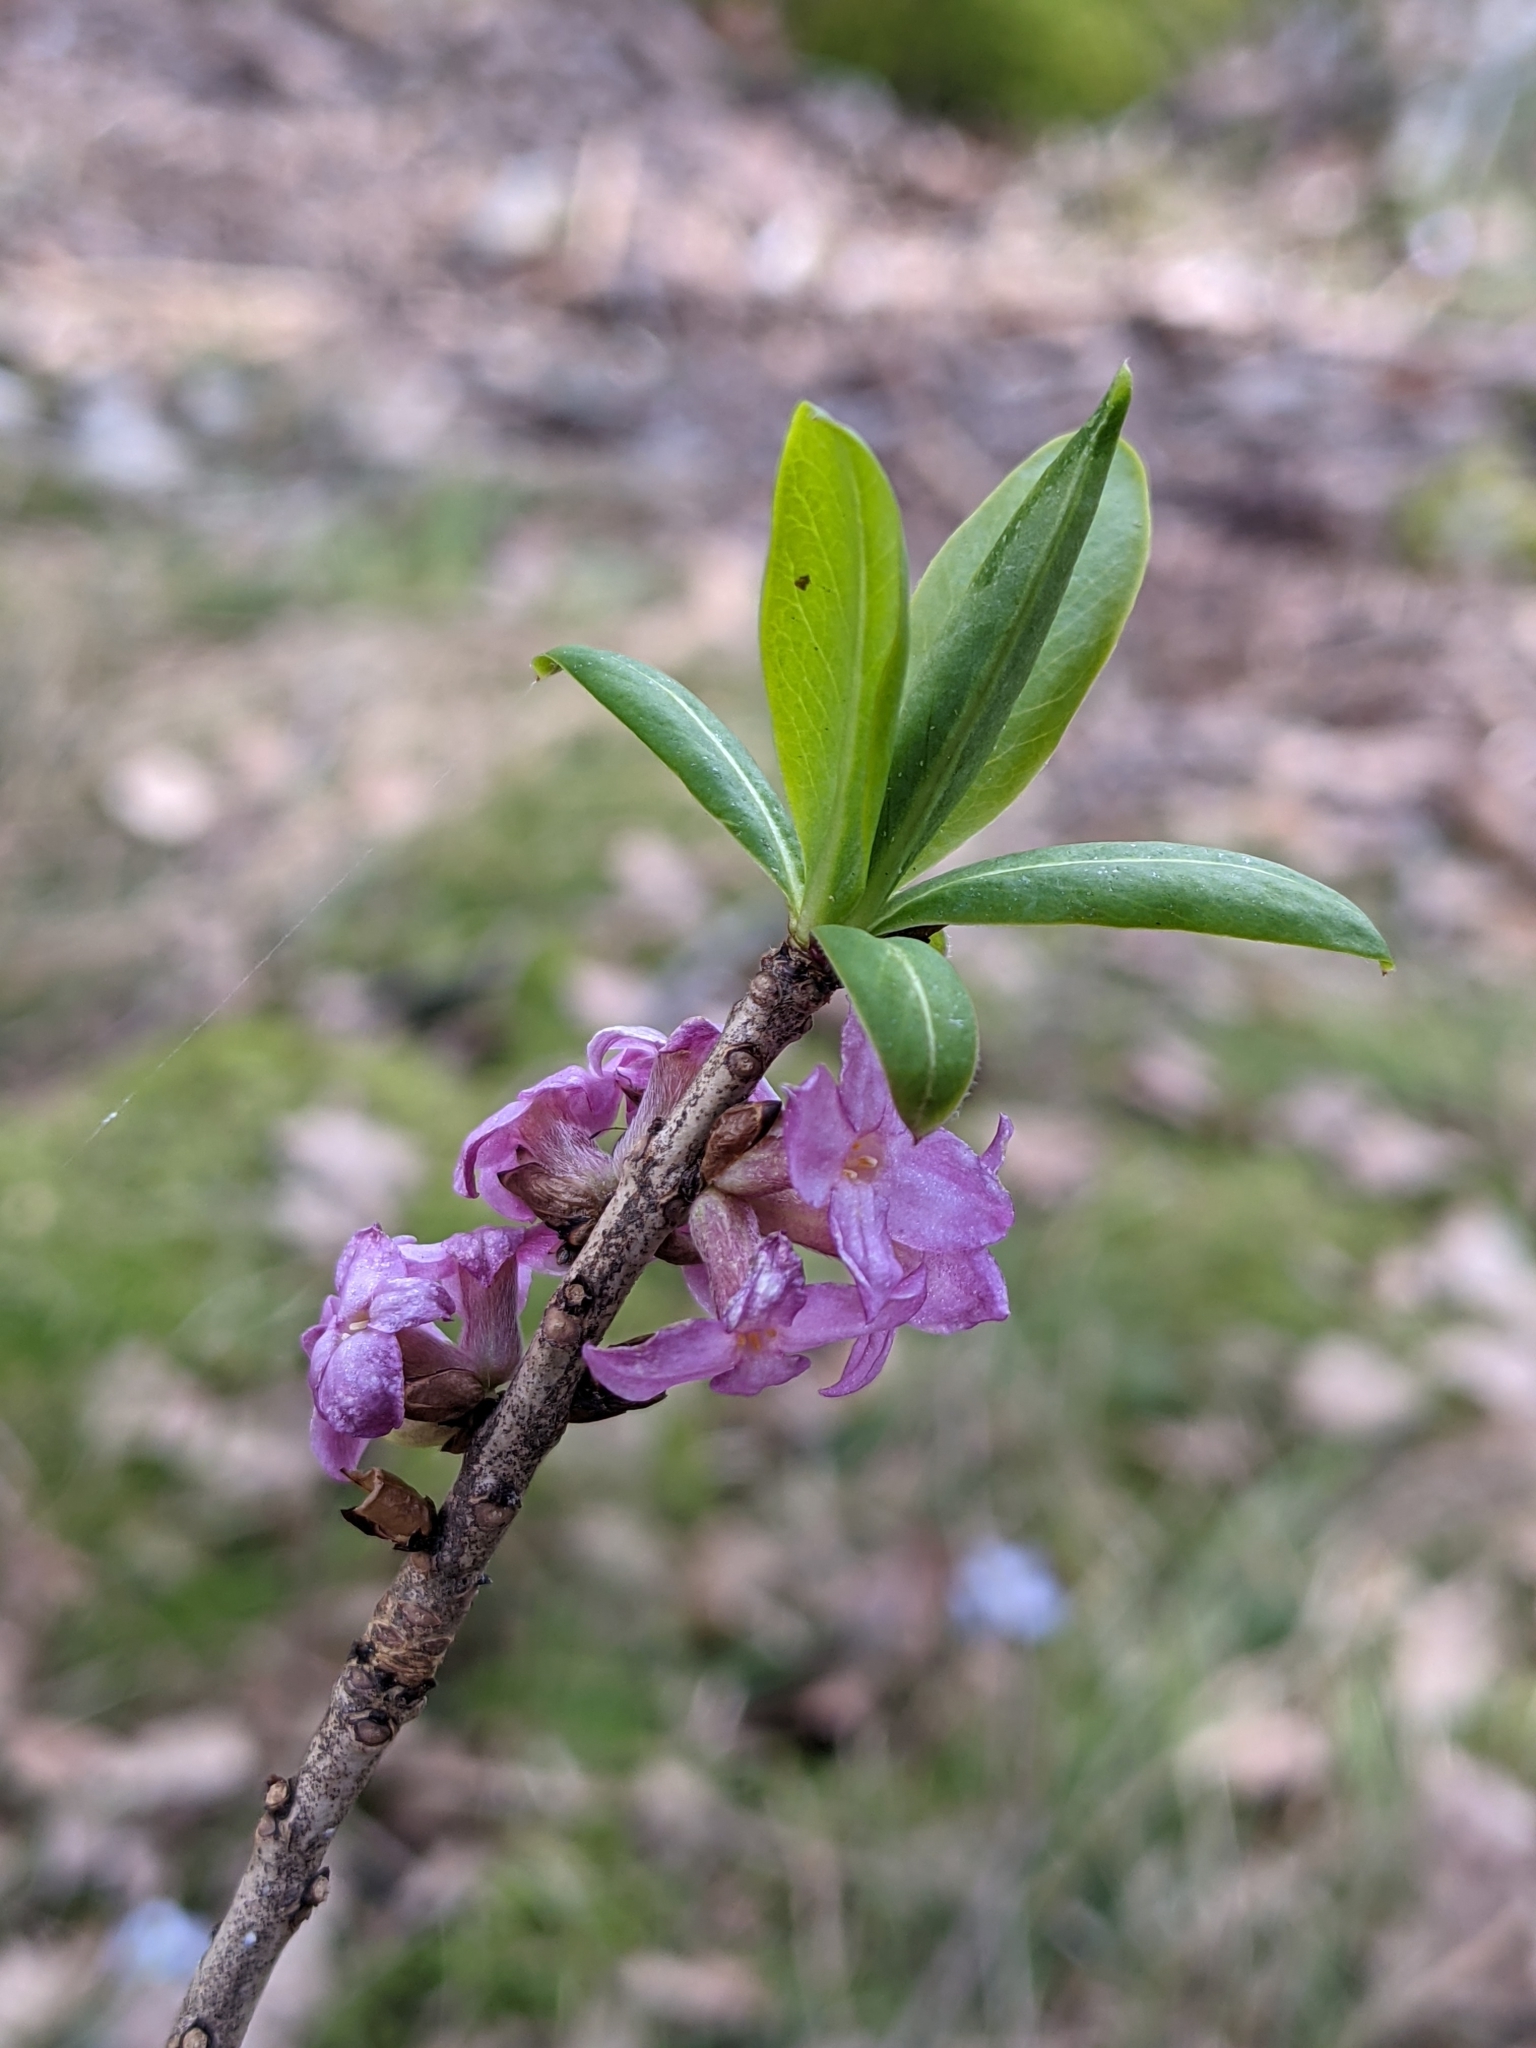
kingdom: Plantae
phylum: Tracheophyta
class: Magnoliopsida
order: Malvales
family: Thymelaeaceae
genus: Daphne
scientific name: Daphne mezereum
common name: Mezereon
